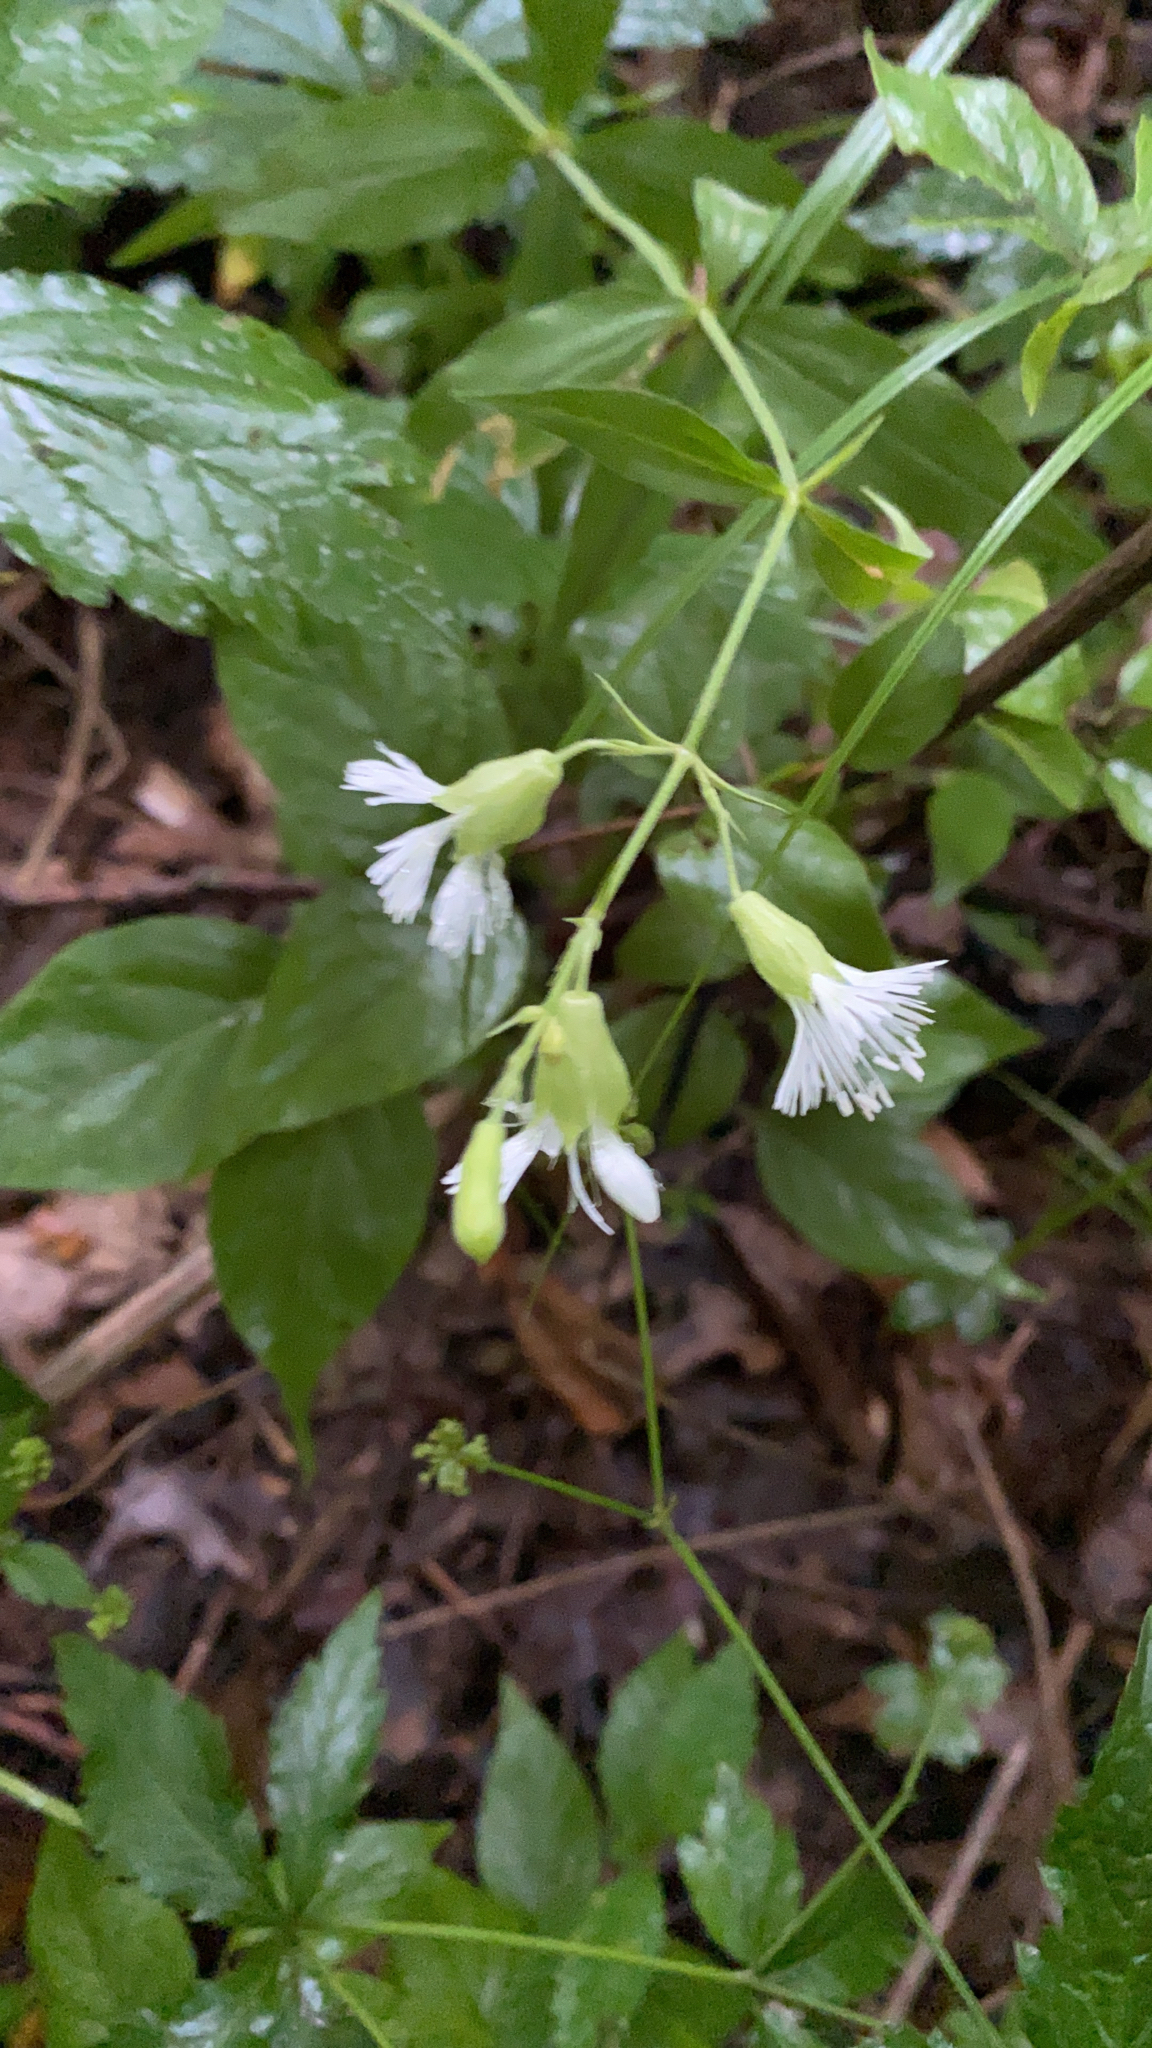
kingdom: Plantae
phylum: Tracheophyta
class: Magnoliopsida
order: Caryophyllales
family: Caryophyllaceae
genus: Silene
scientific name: Silene stellata
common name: Starry campion
